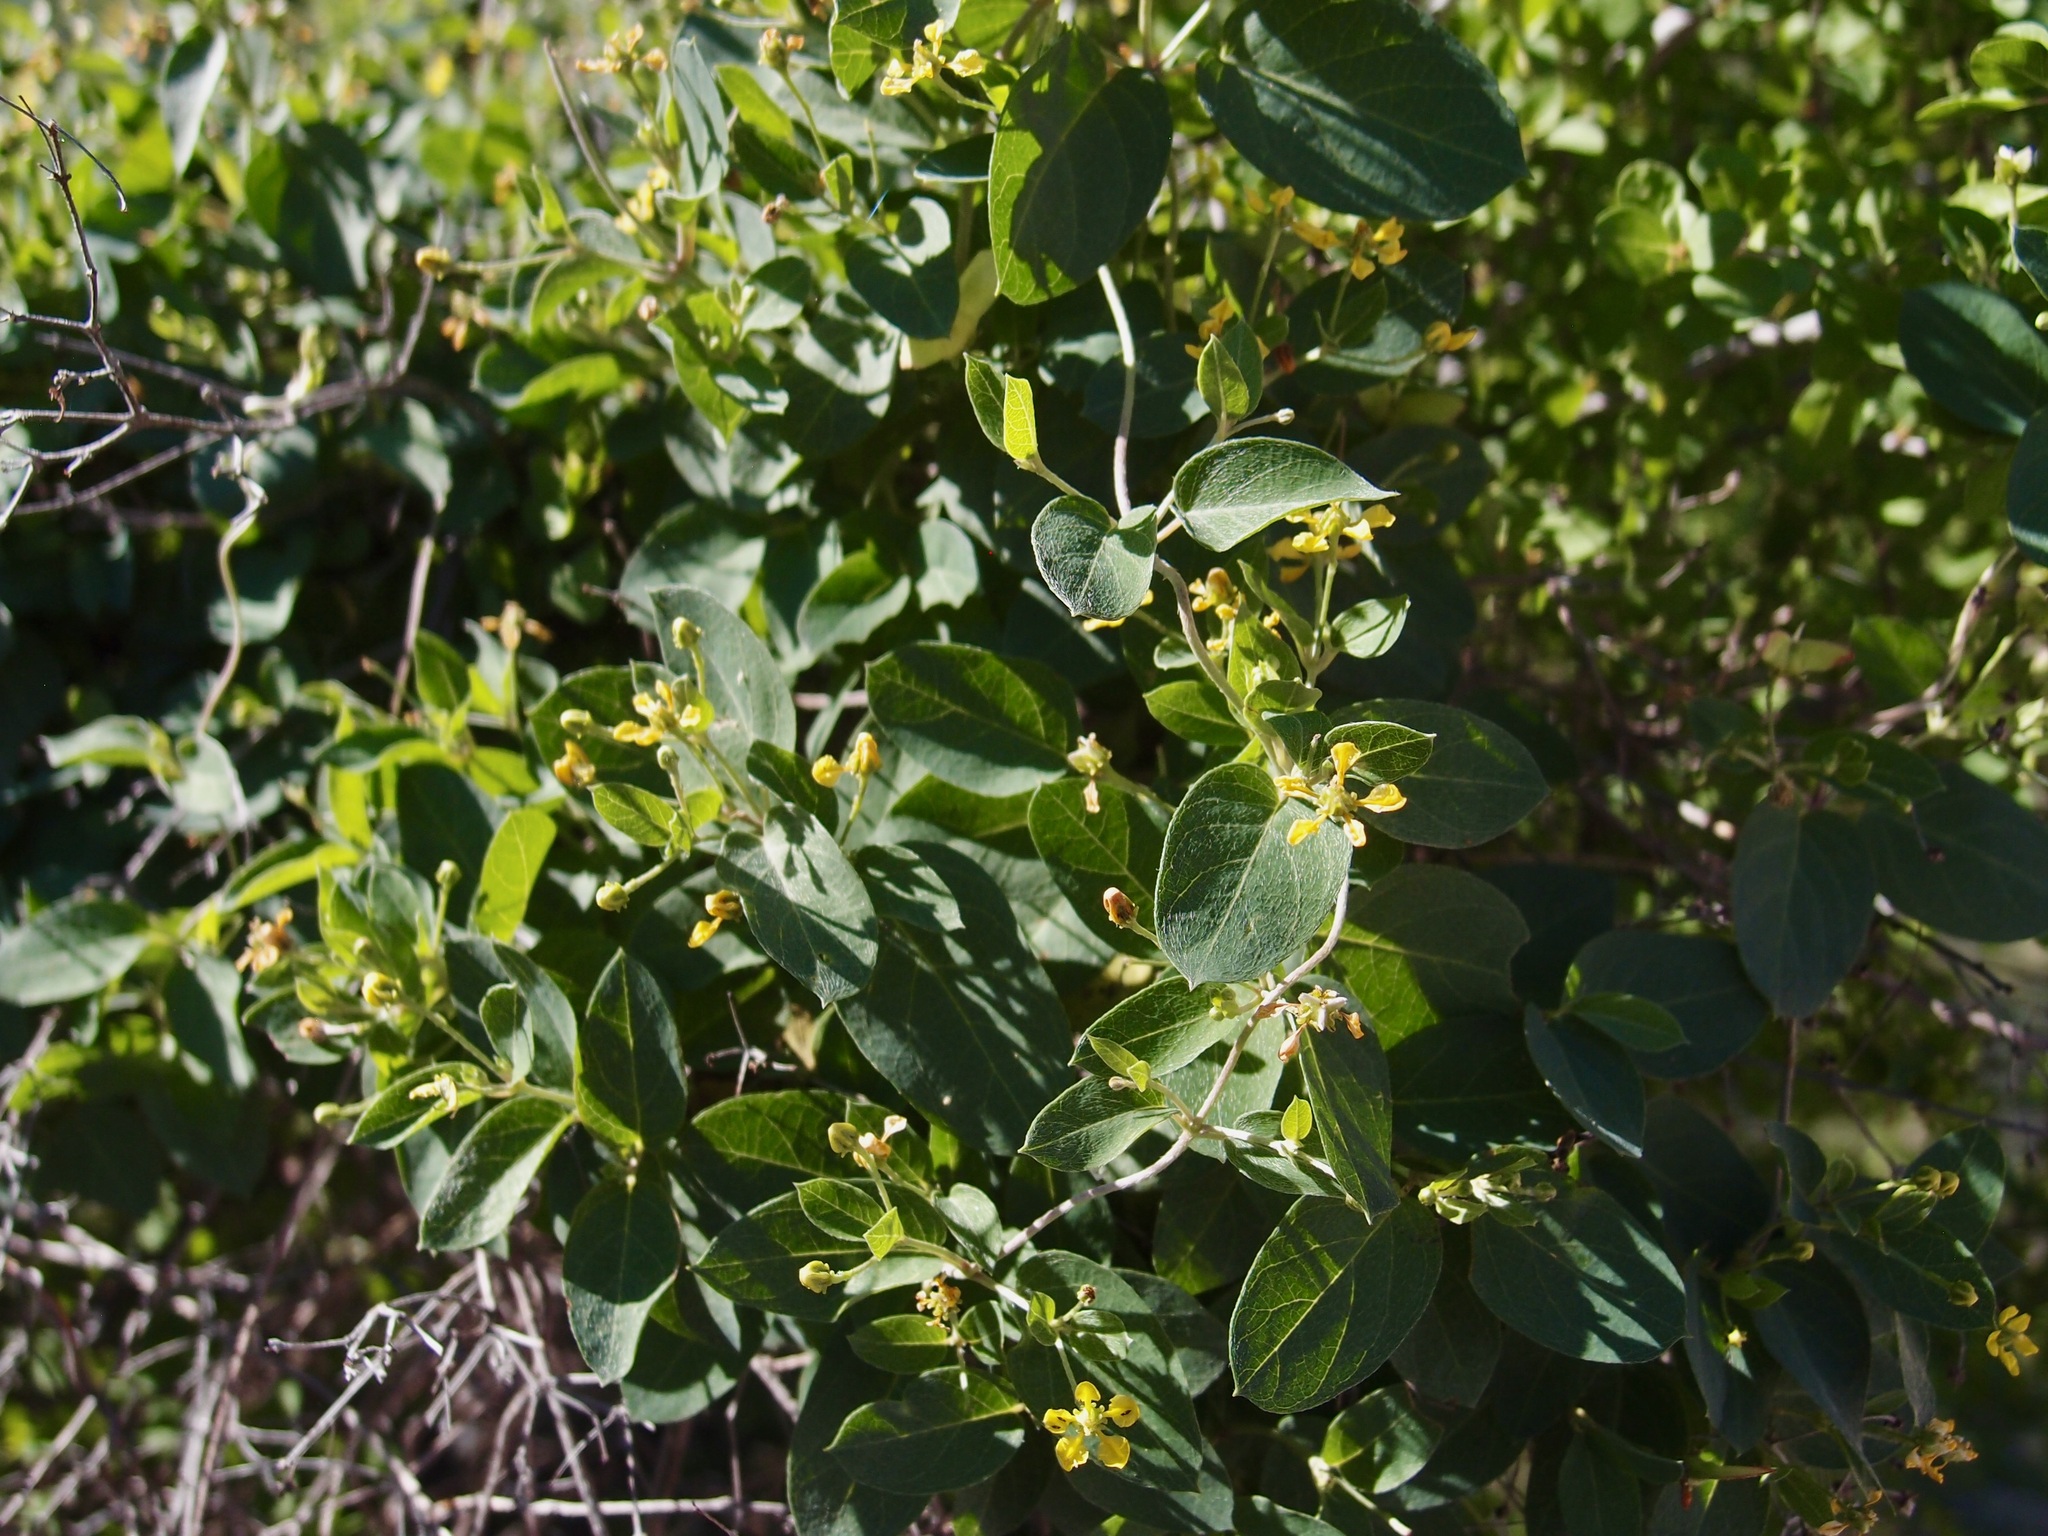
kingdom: Plantae
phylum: Tracheophyta
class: Magnoliopsida
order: Malpighiales
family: Malpighiaceae
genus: Cottsia
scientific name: Cottsia californica
